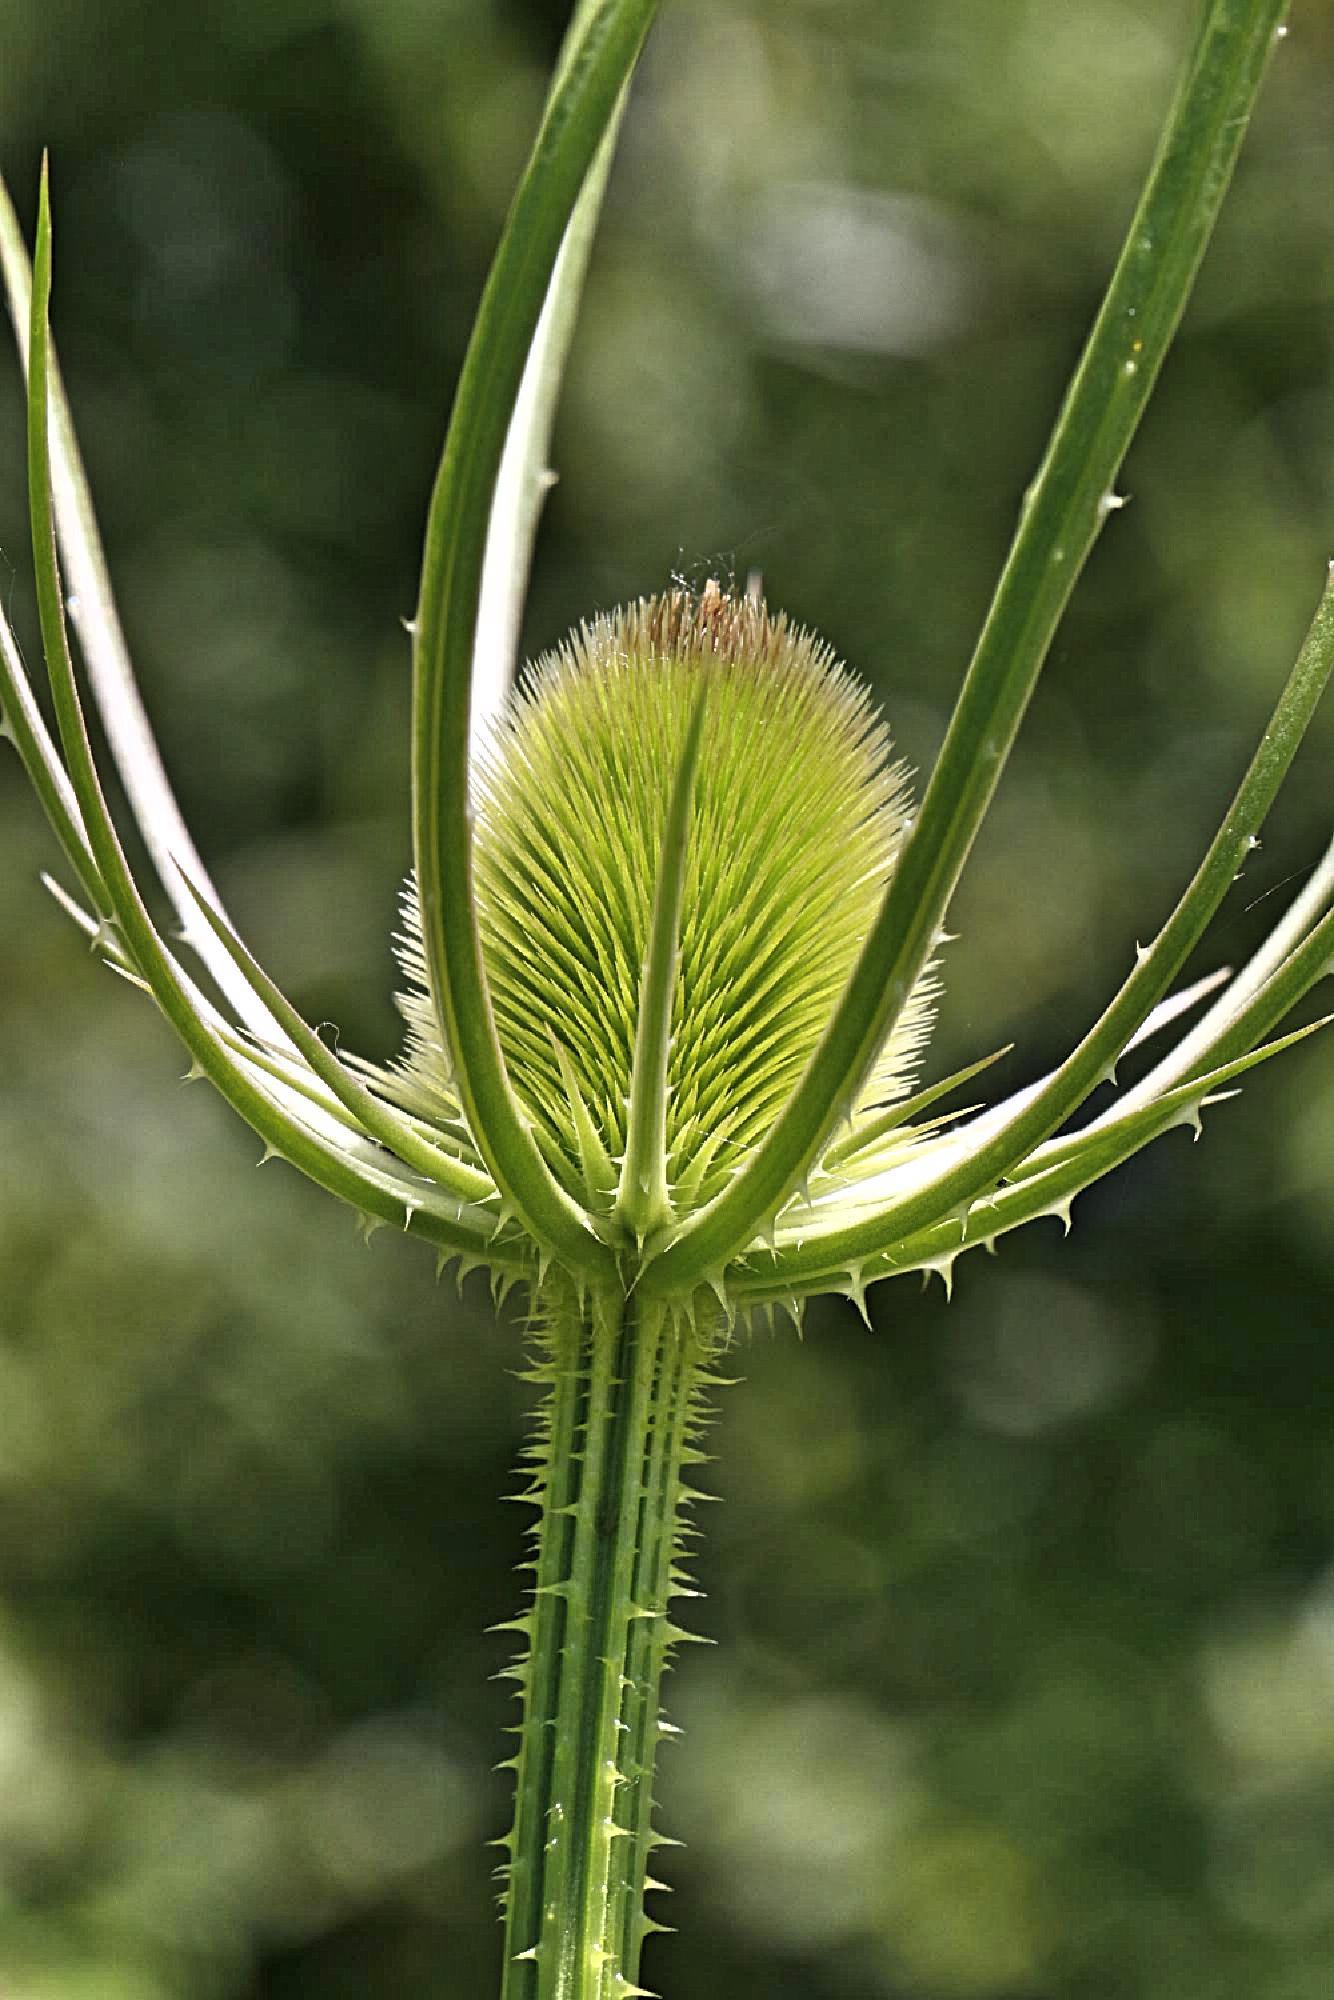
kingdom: Plantae
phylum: Tracheophyta
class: Magnoliopsida
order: Dipsacales
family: Caprifoliaceae
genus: Dipsacus
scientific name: Dipsacus fullonum
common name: Teasel
